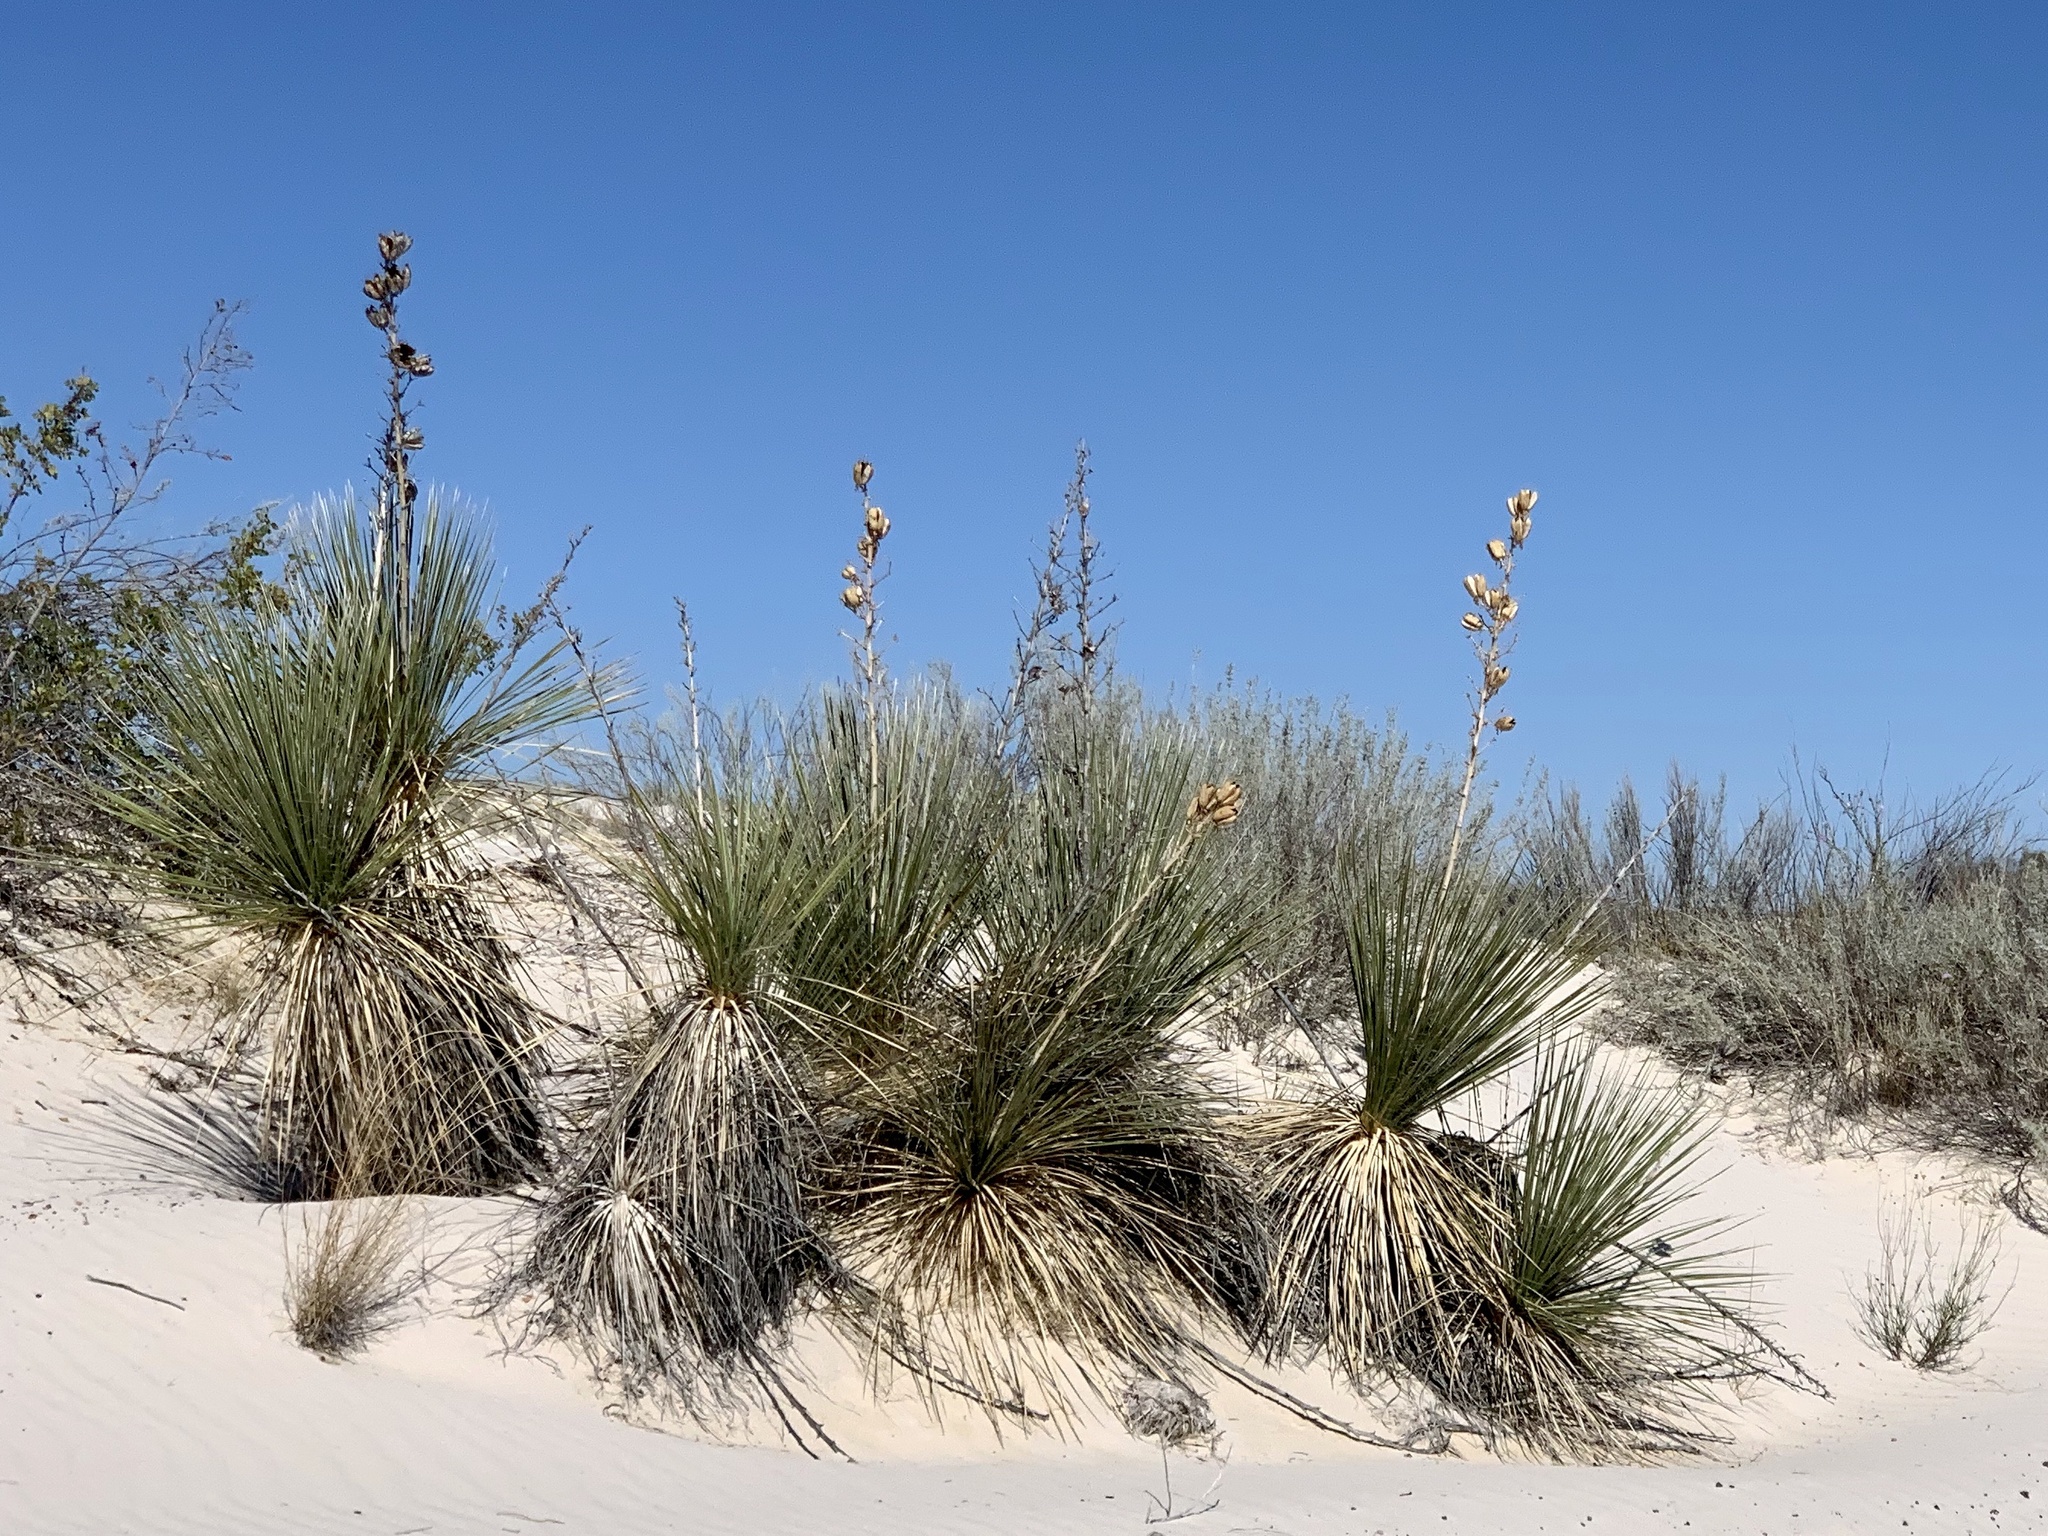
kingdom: Plantae
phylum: Tracheophyta
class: Liliopsida
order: Asparagales
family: Asparagaceae
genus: Yucca
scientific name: Yucca elata
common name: Palmella
